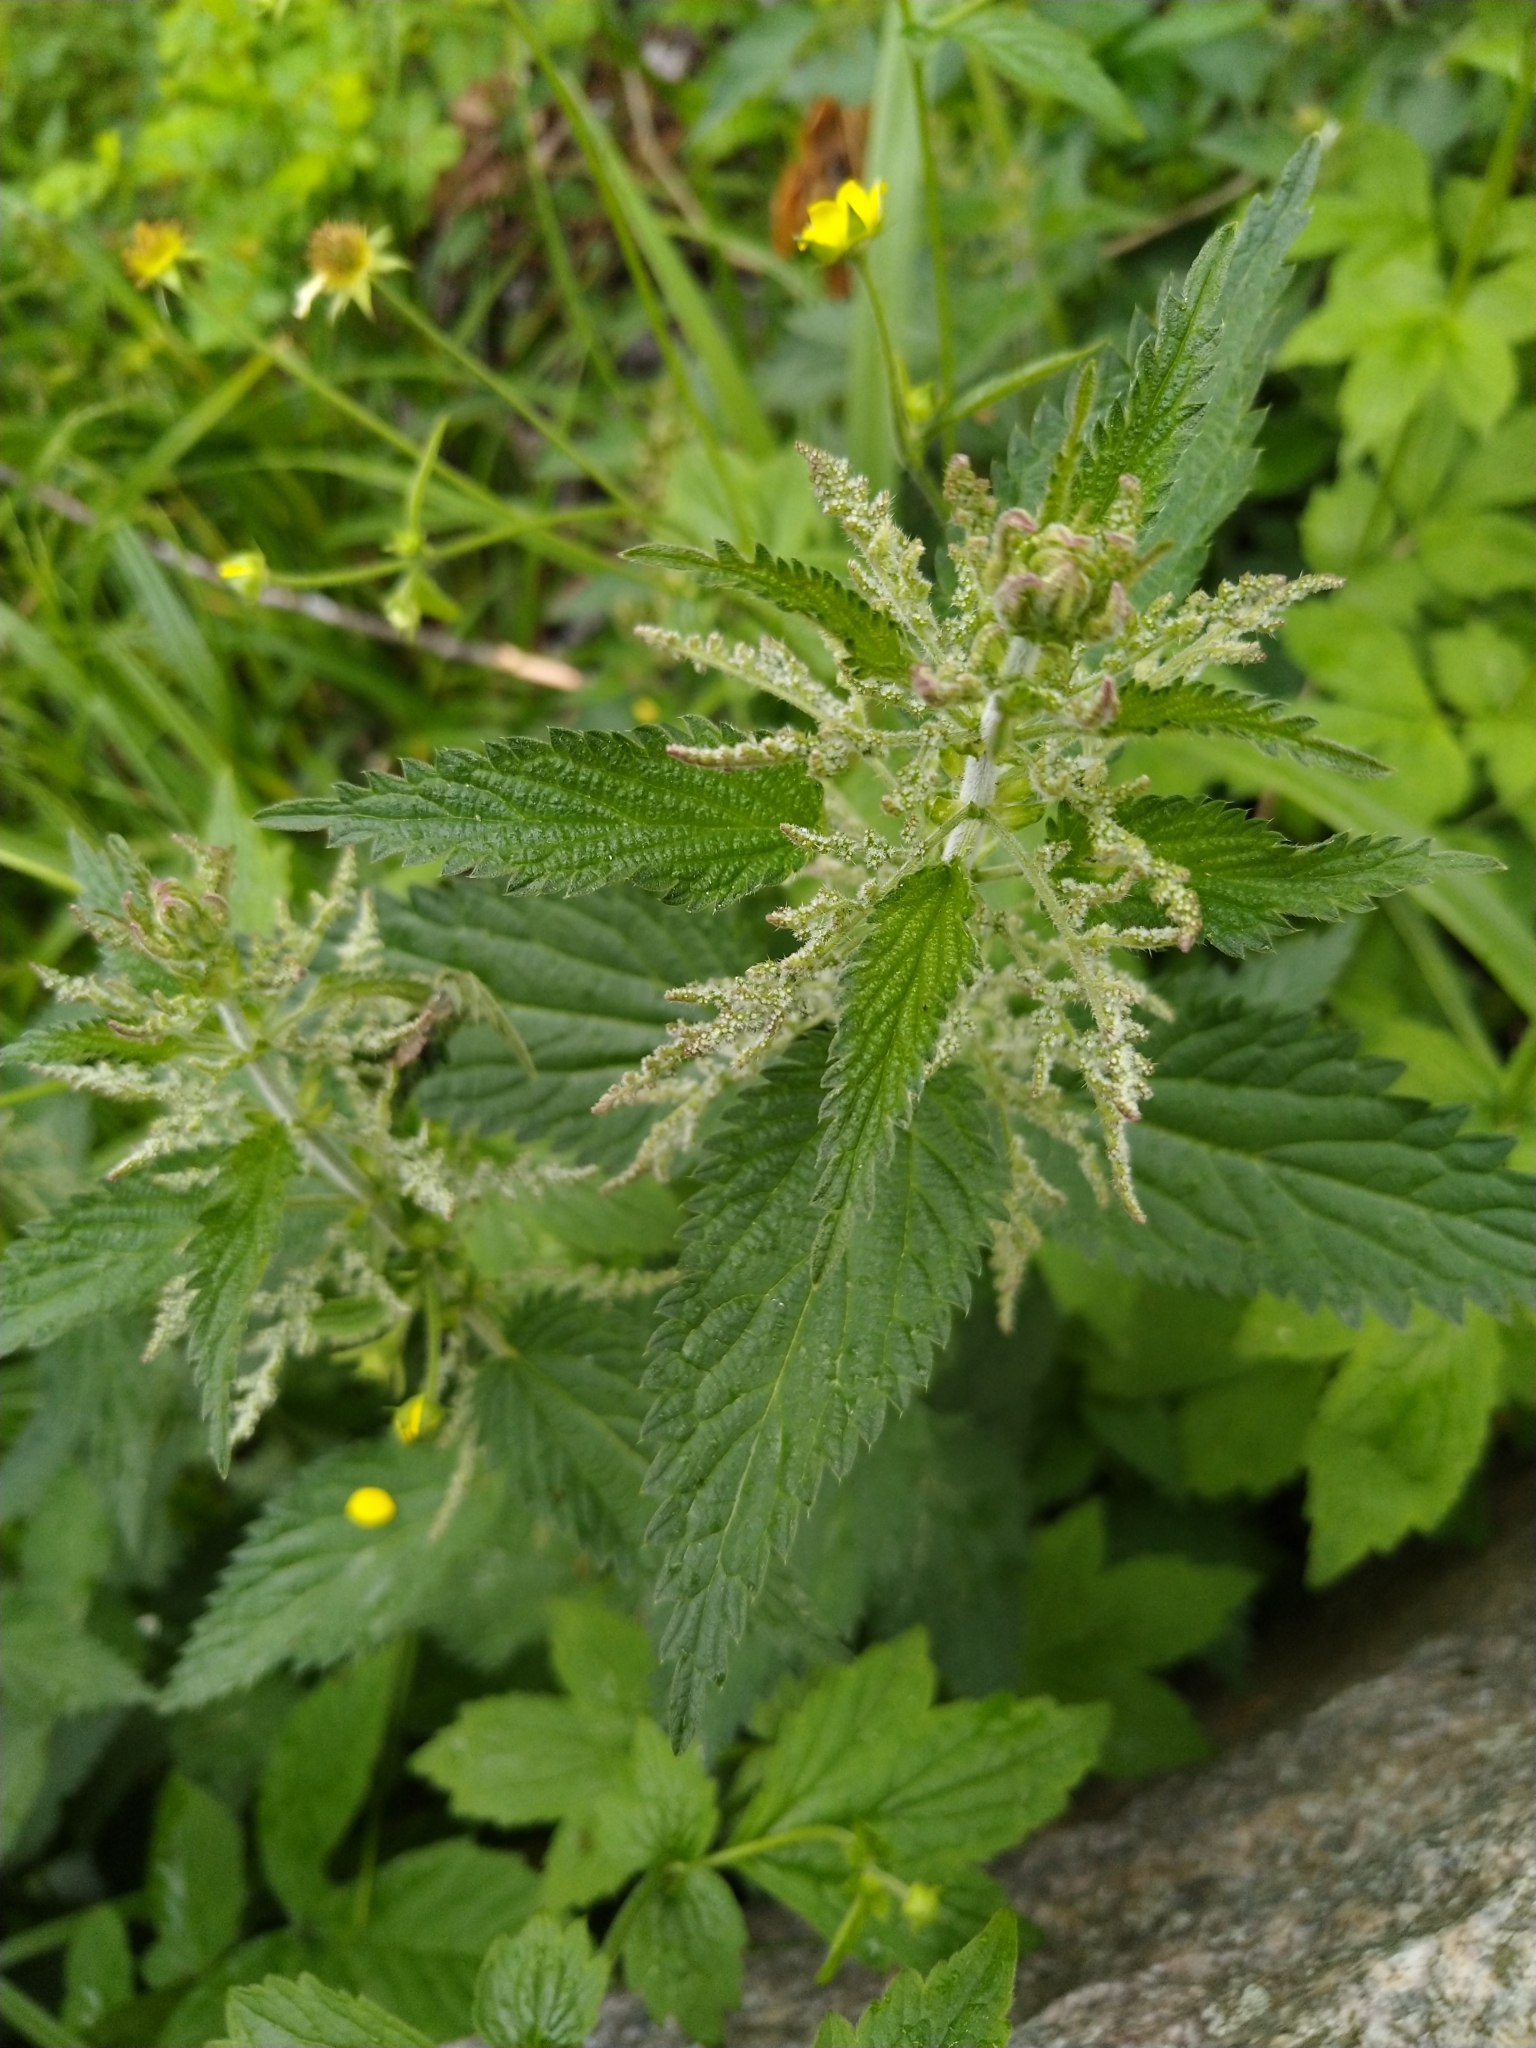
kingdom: Plantae
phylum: Tracheophyta
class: Magnoliopsida
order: Rosales
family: Urticaceae
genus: Urtica
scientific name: Urtica dioica
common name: Common nettle
